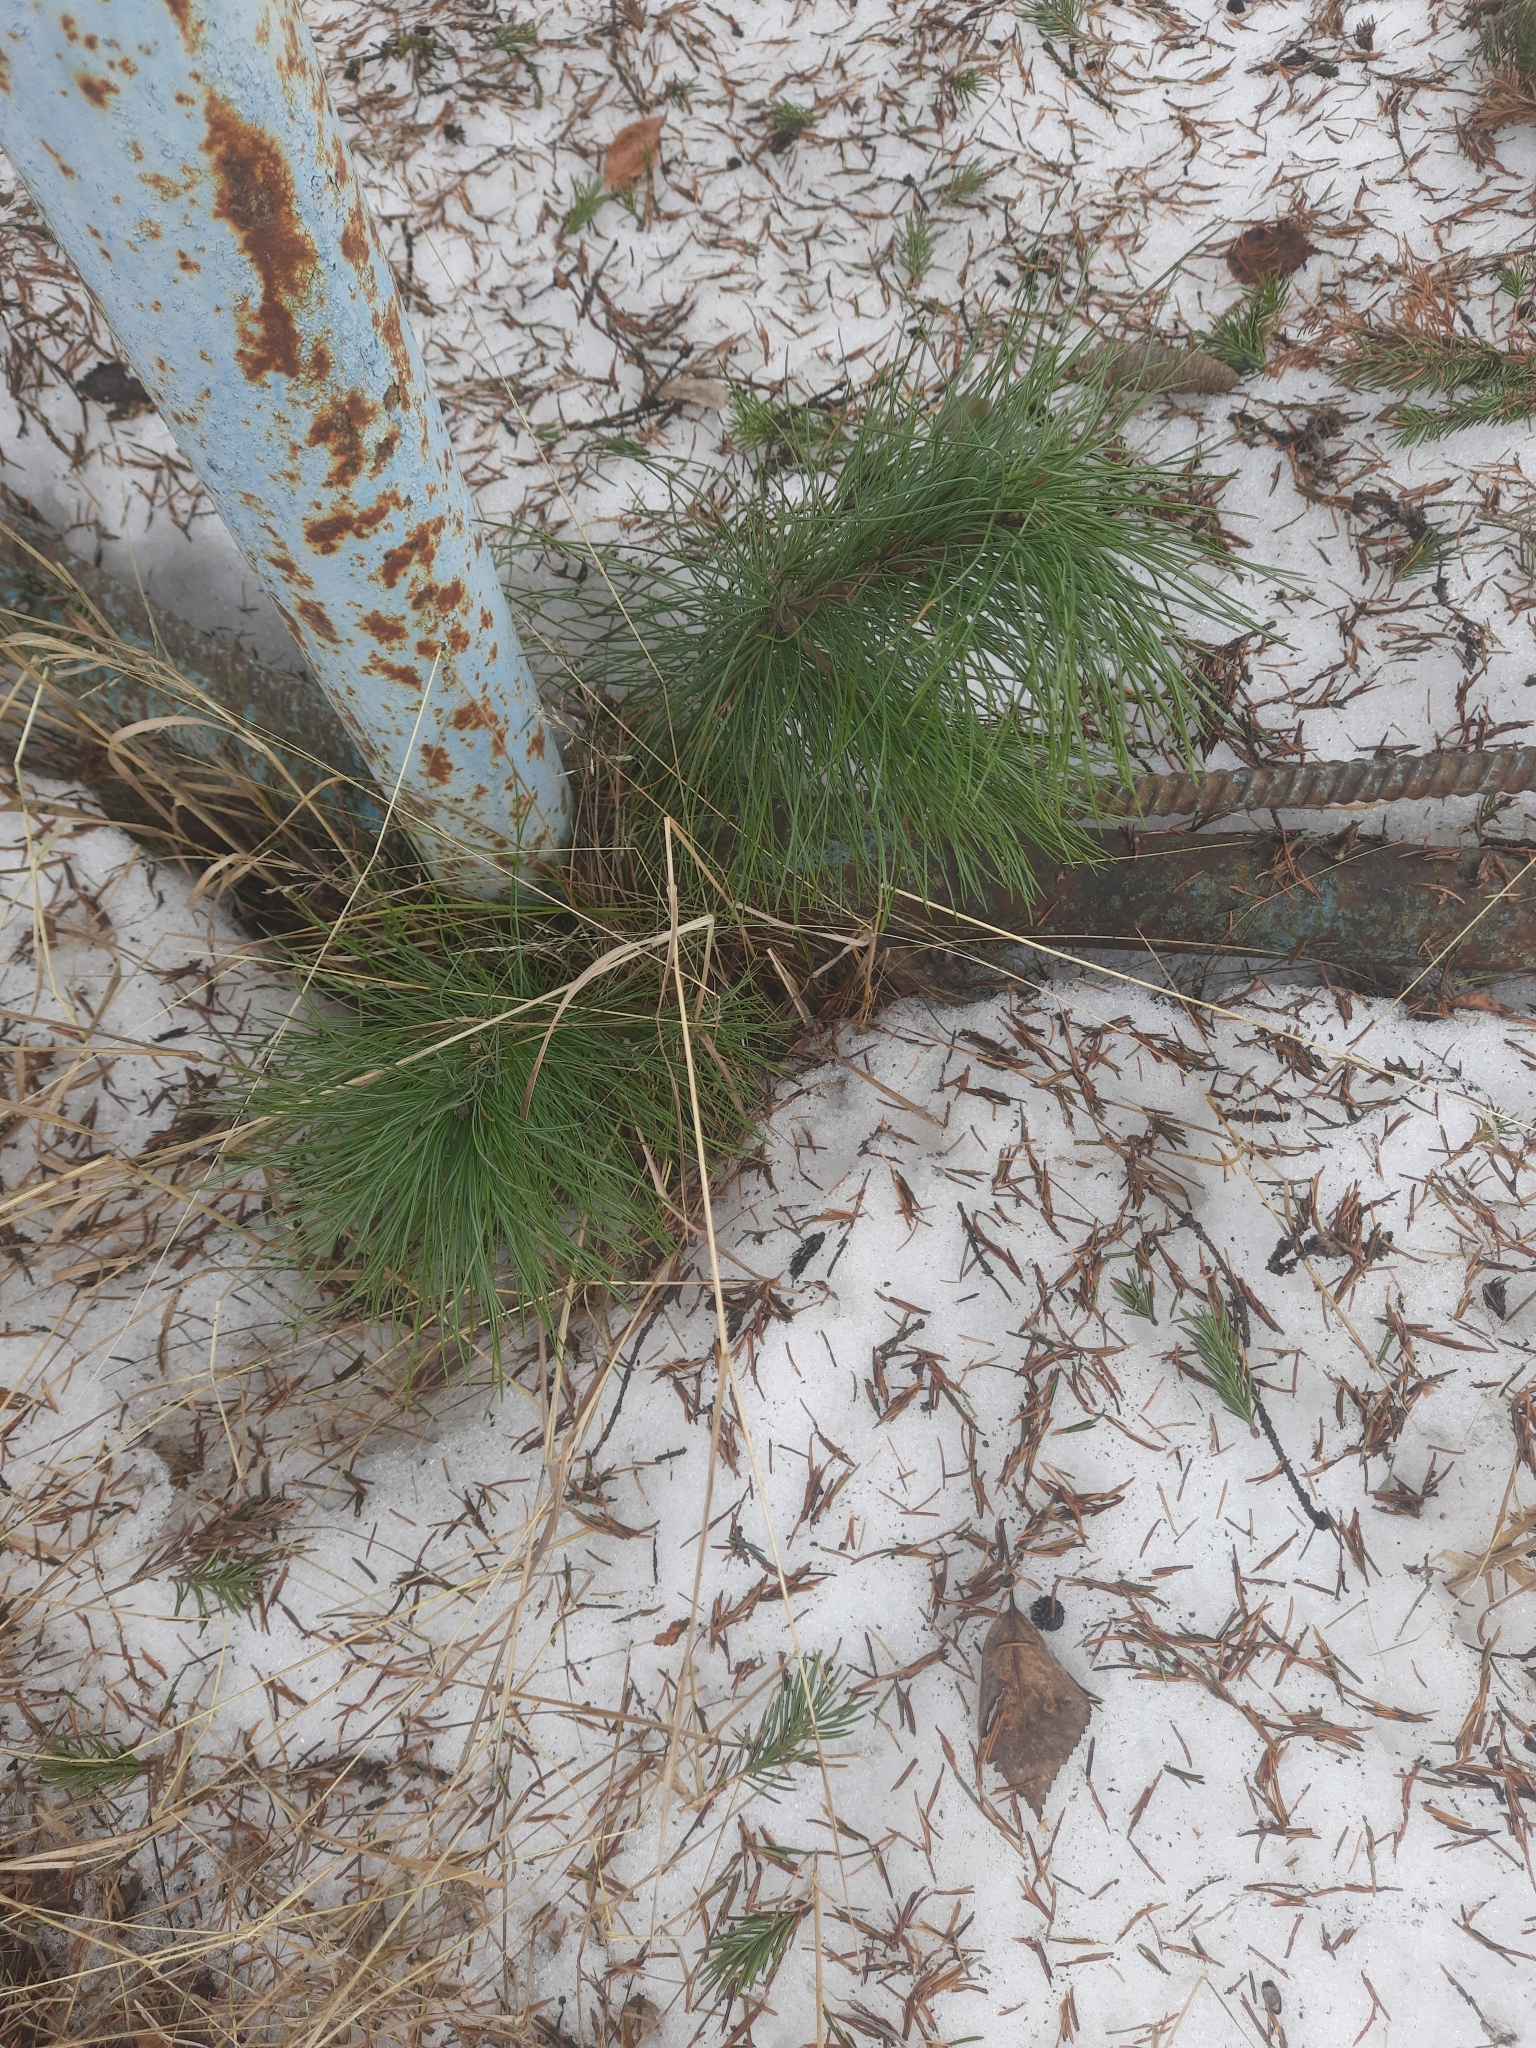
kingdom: Plantae
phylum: Tracheophyta
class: Pinopsida
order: Pinales
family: Pinaceae
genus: Pinus
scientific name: Pinus sibirica
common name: Siberian pine
